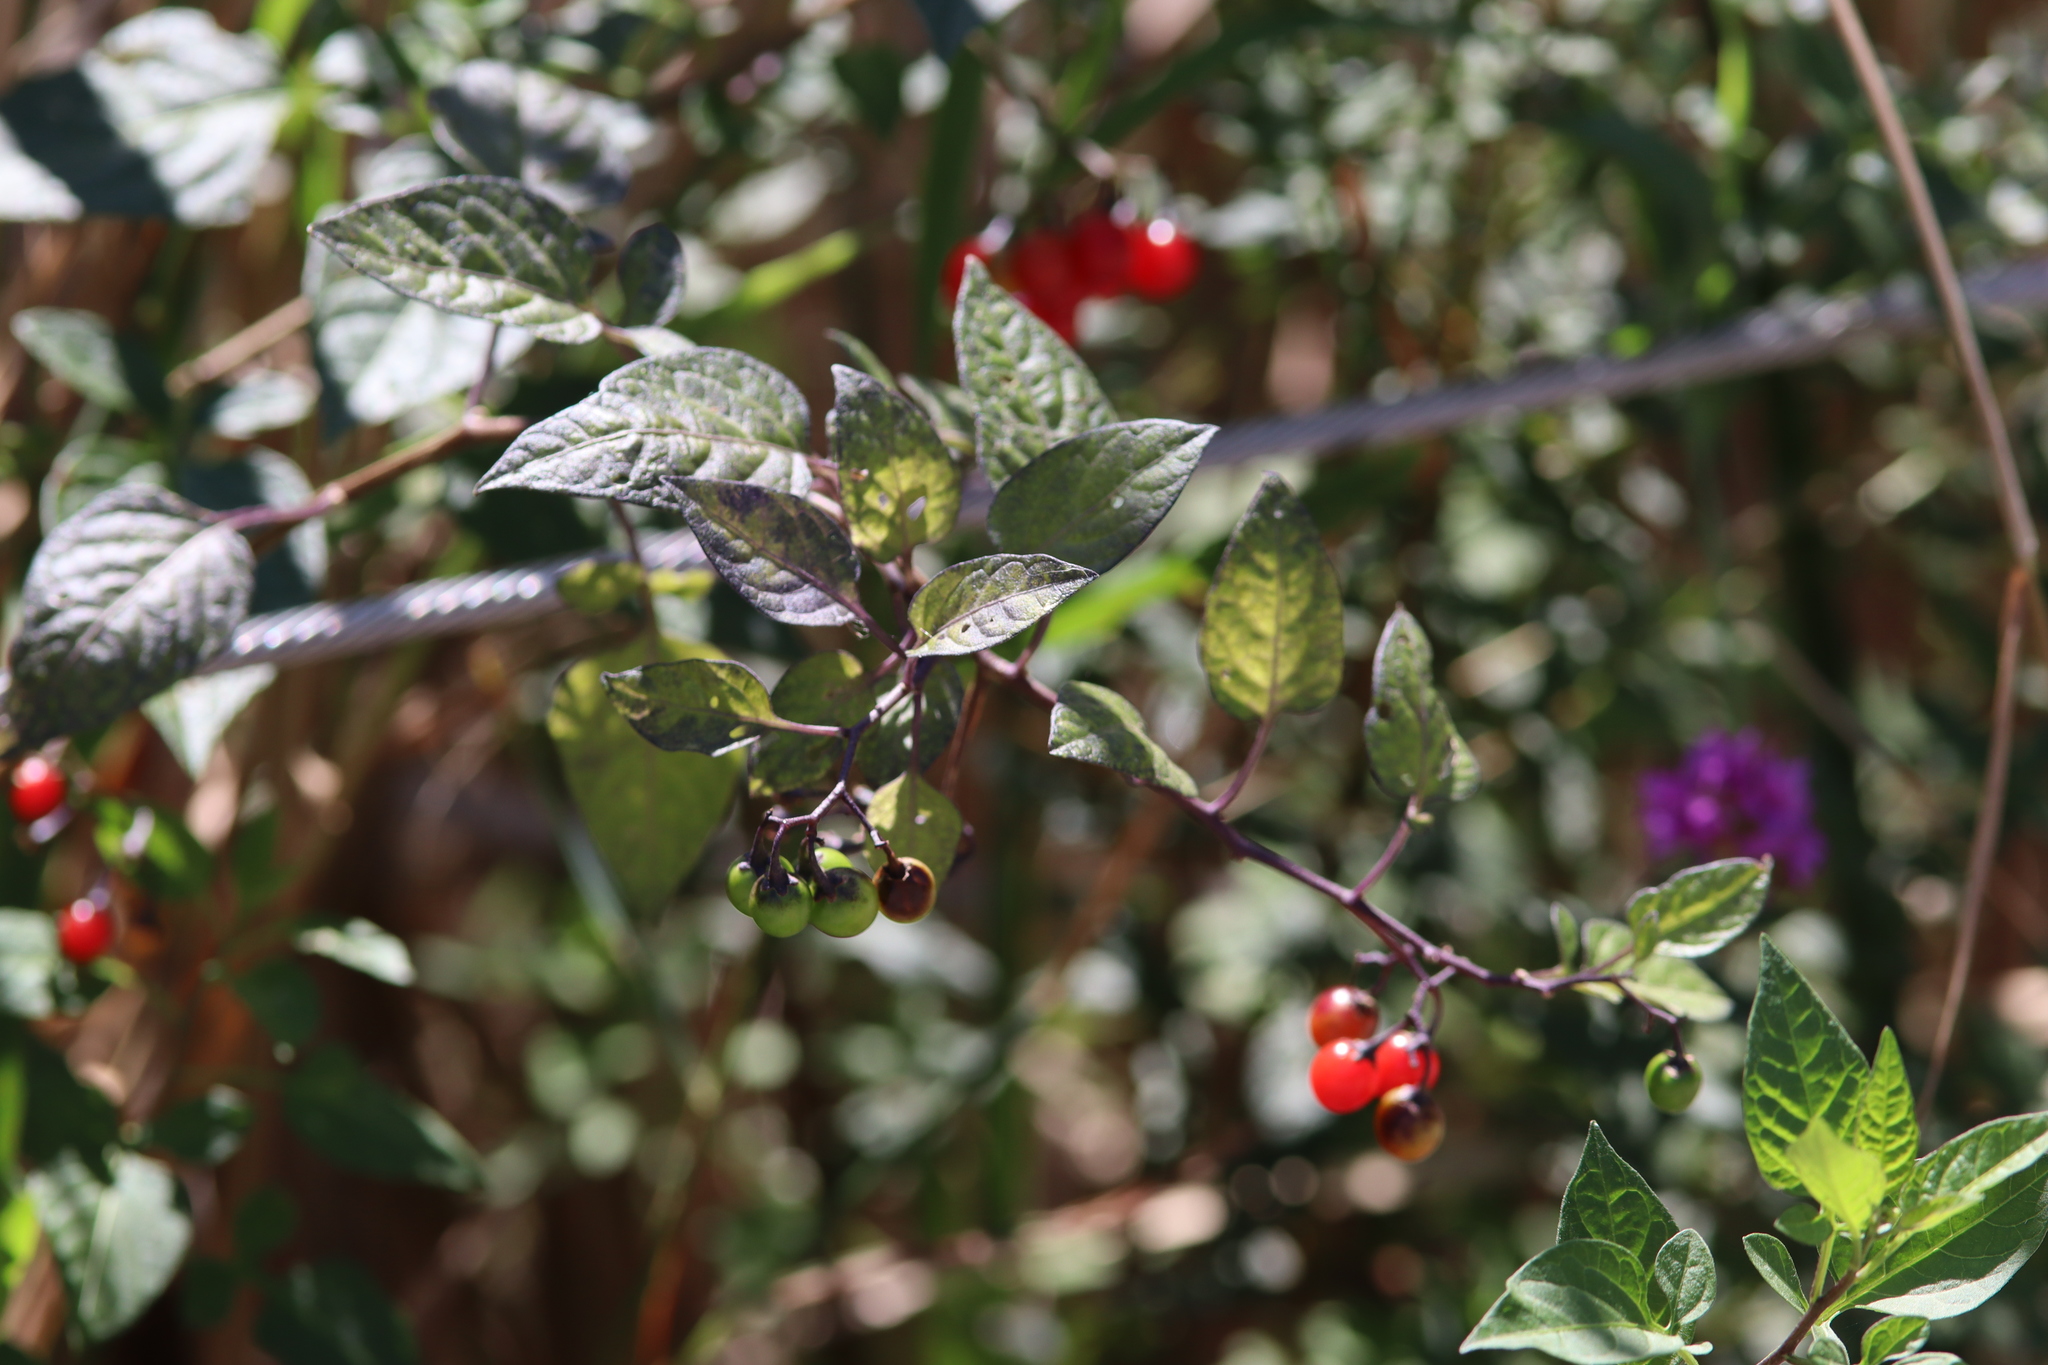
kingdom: Plantae
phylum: Tracheophyta
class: Magnoliopsida
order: Solanales
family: Solanaceae
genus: Solanum
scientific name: Solanum dulcamara
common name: Climbing nightshade
